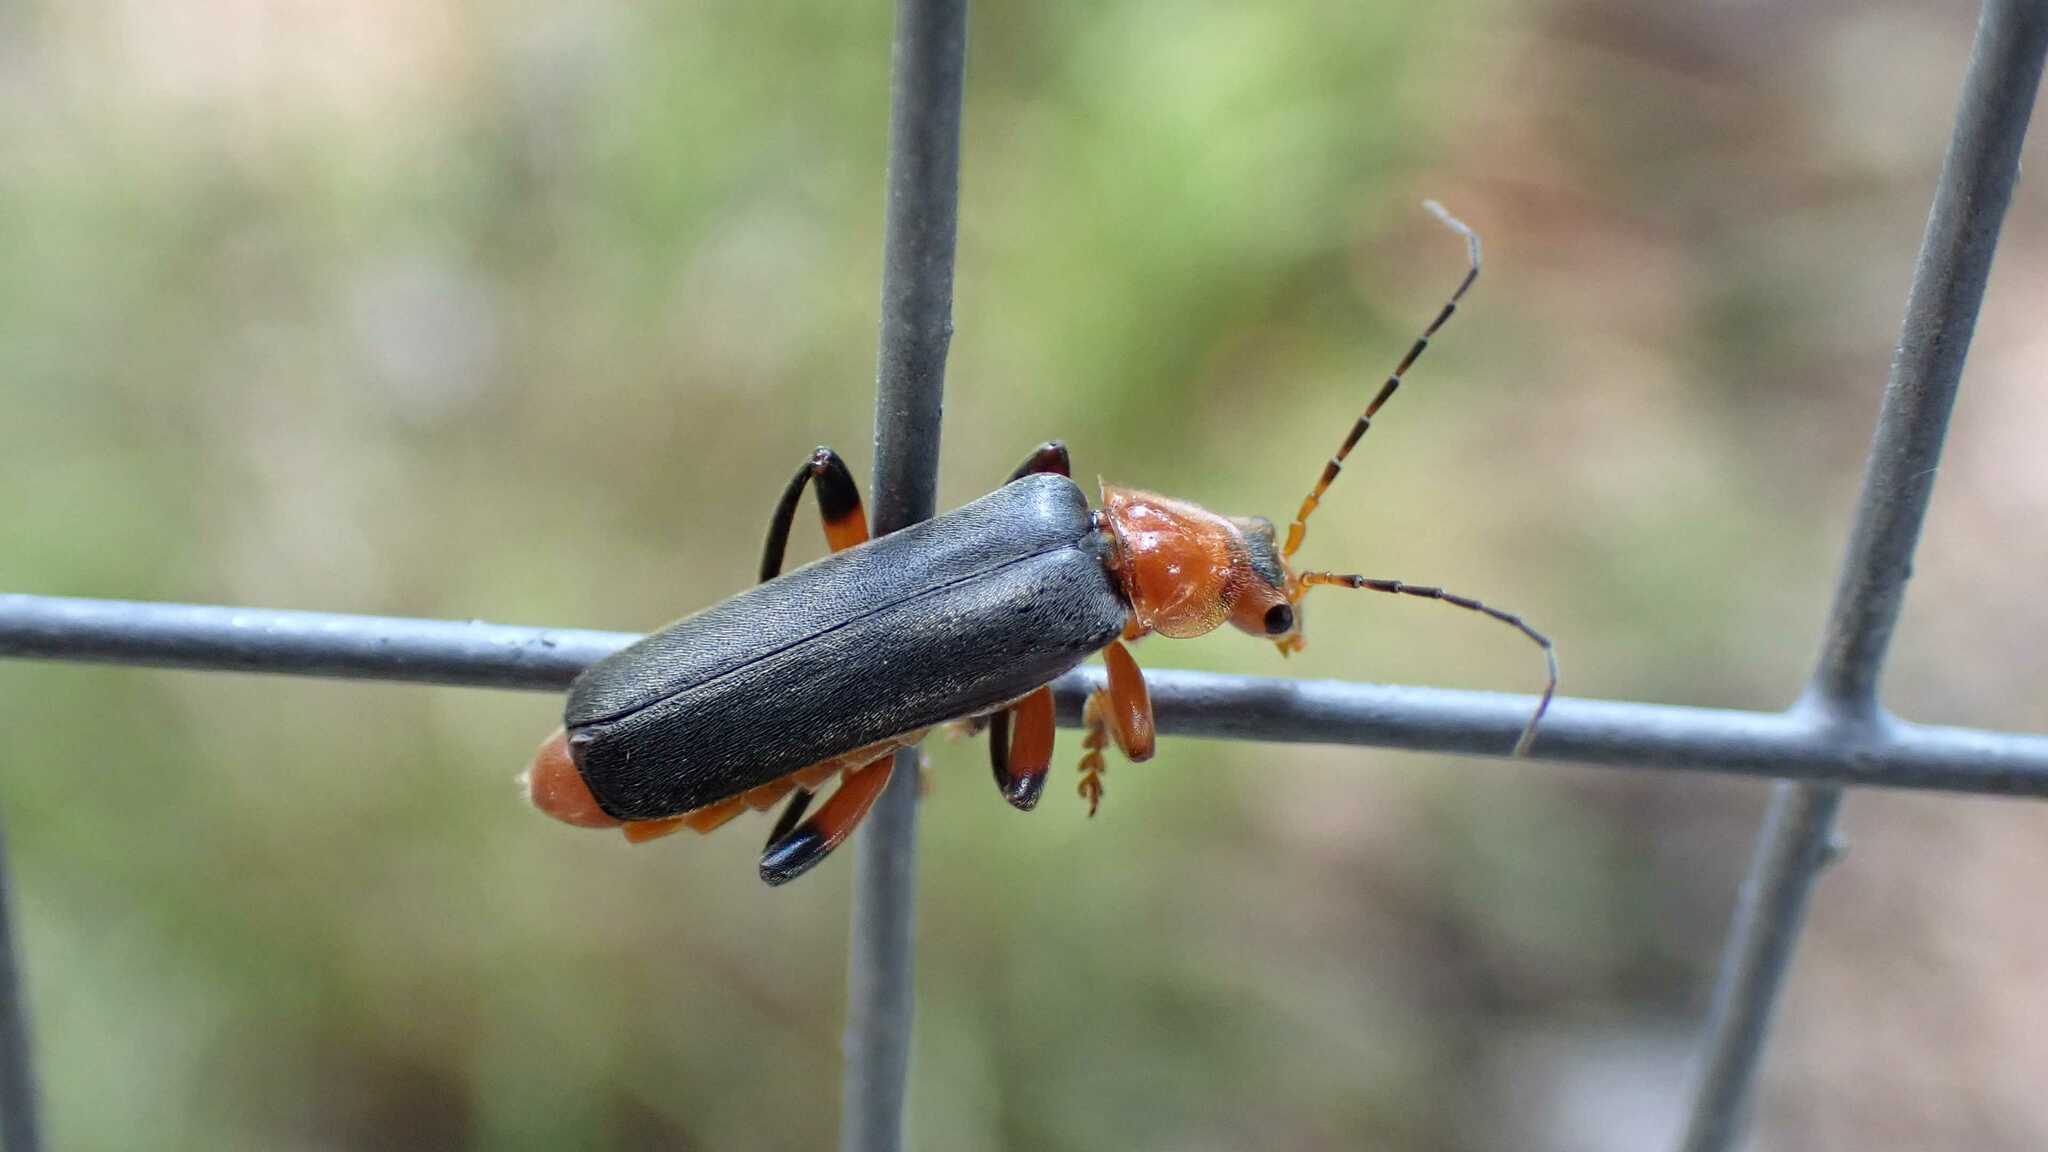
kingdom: Animalia
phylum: Arthropoda
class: Insecta
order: Coleoptera
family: Cantharidae
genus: Cantharis
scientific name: Cantharis livida
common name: Livid soldier beetle
